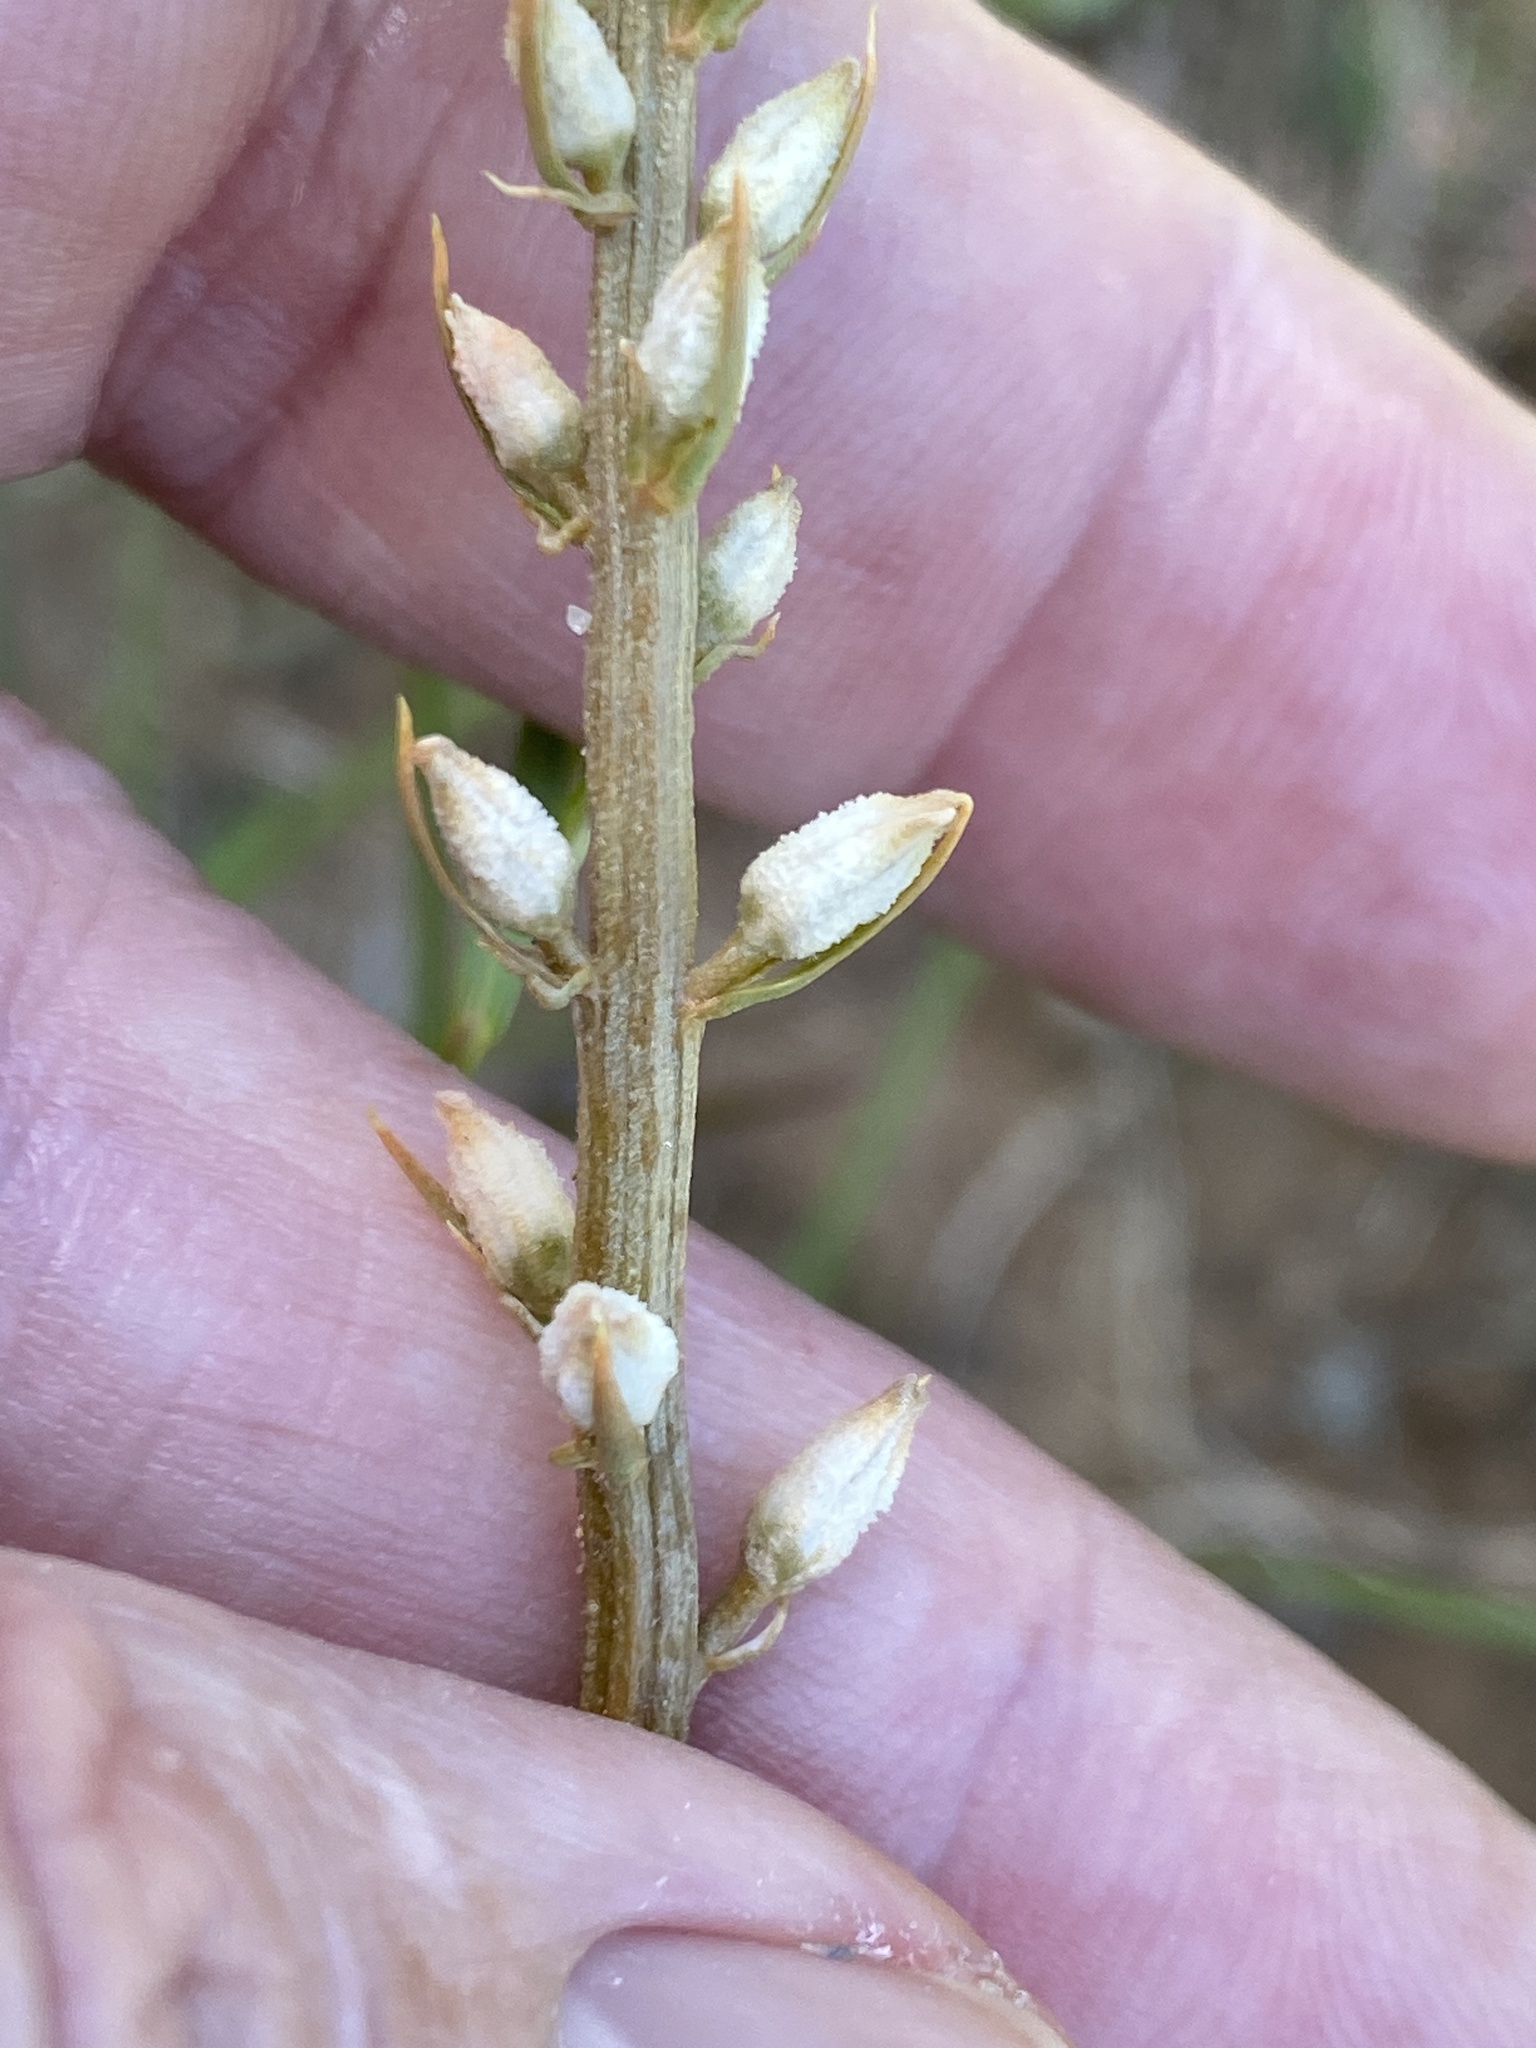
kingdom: Plantae
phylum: Tracheophyta
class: Liliopsida
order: Dioscoreales
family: Nartheciaceae
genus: Aletris
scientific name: Aletris farinosa
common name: Colicroot
